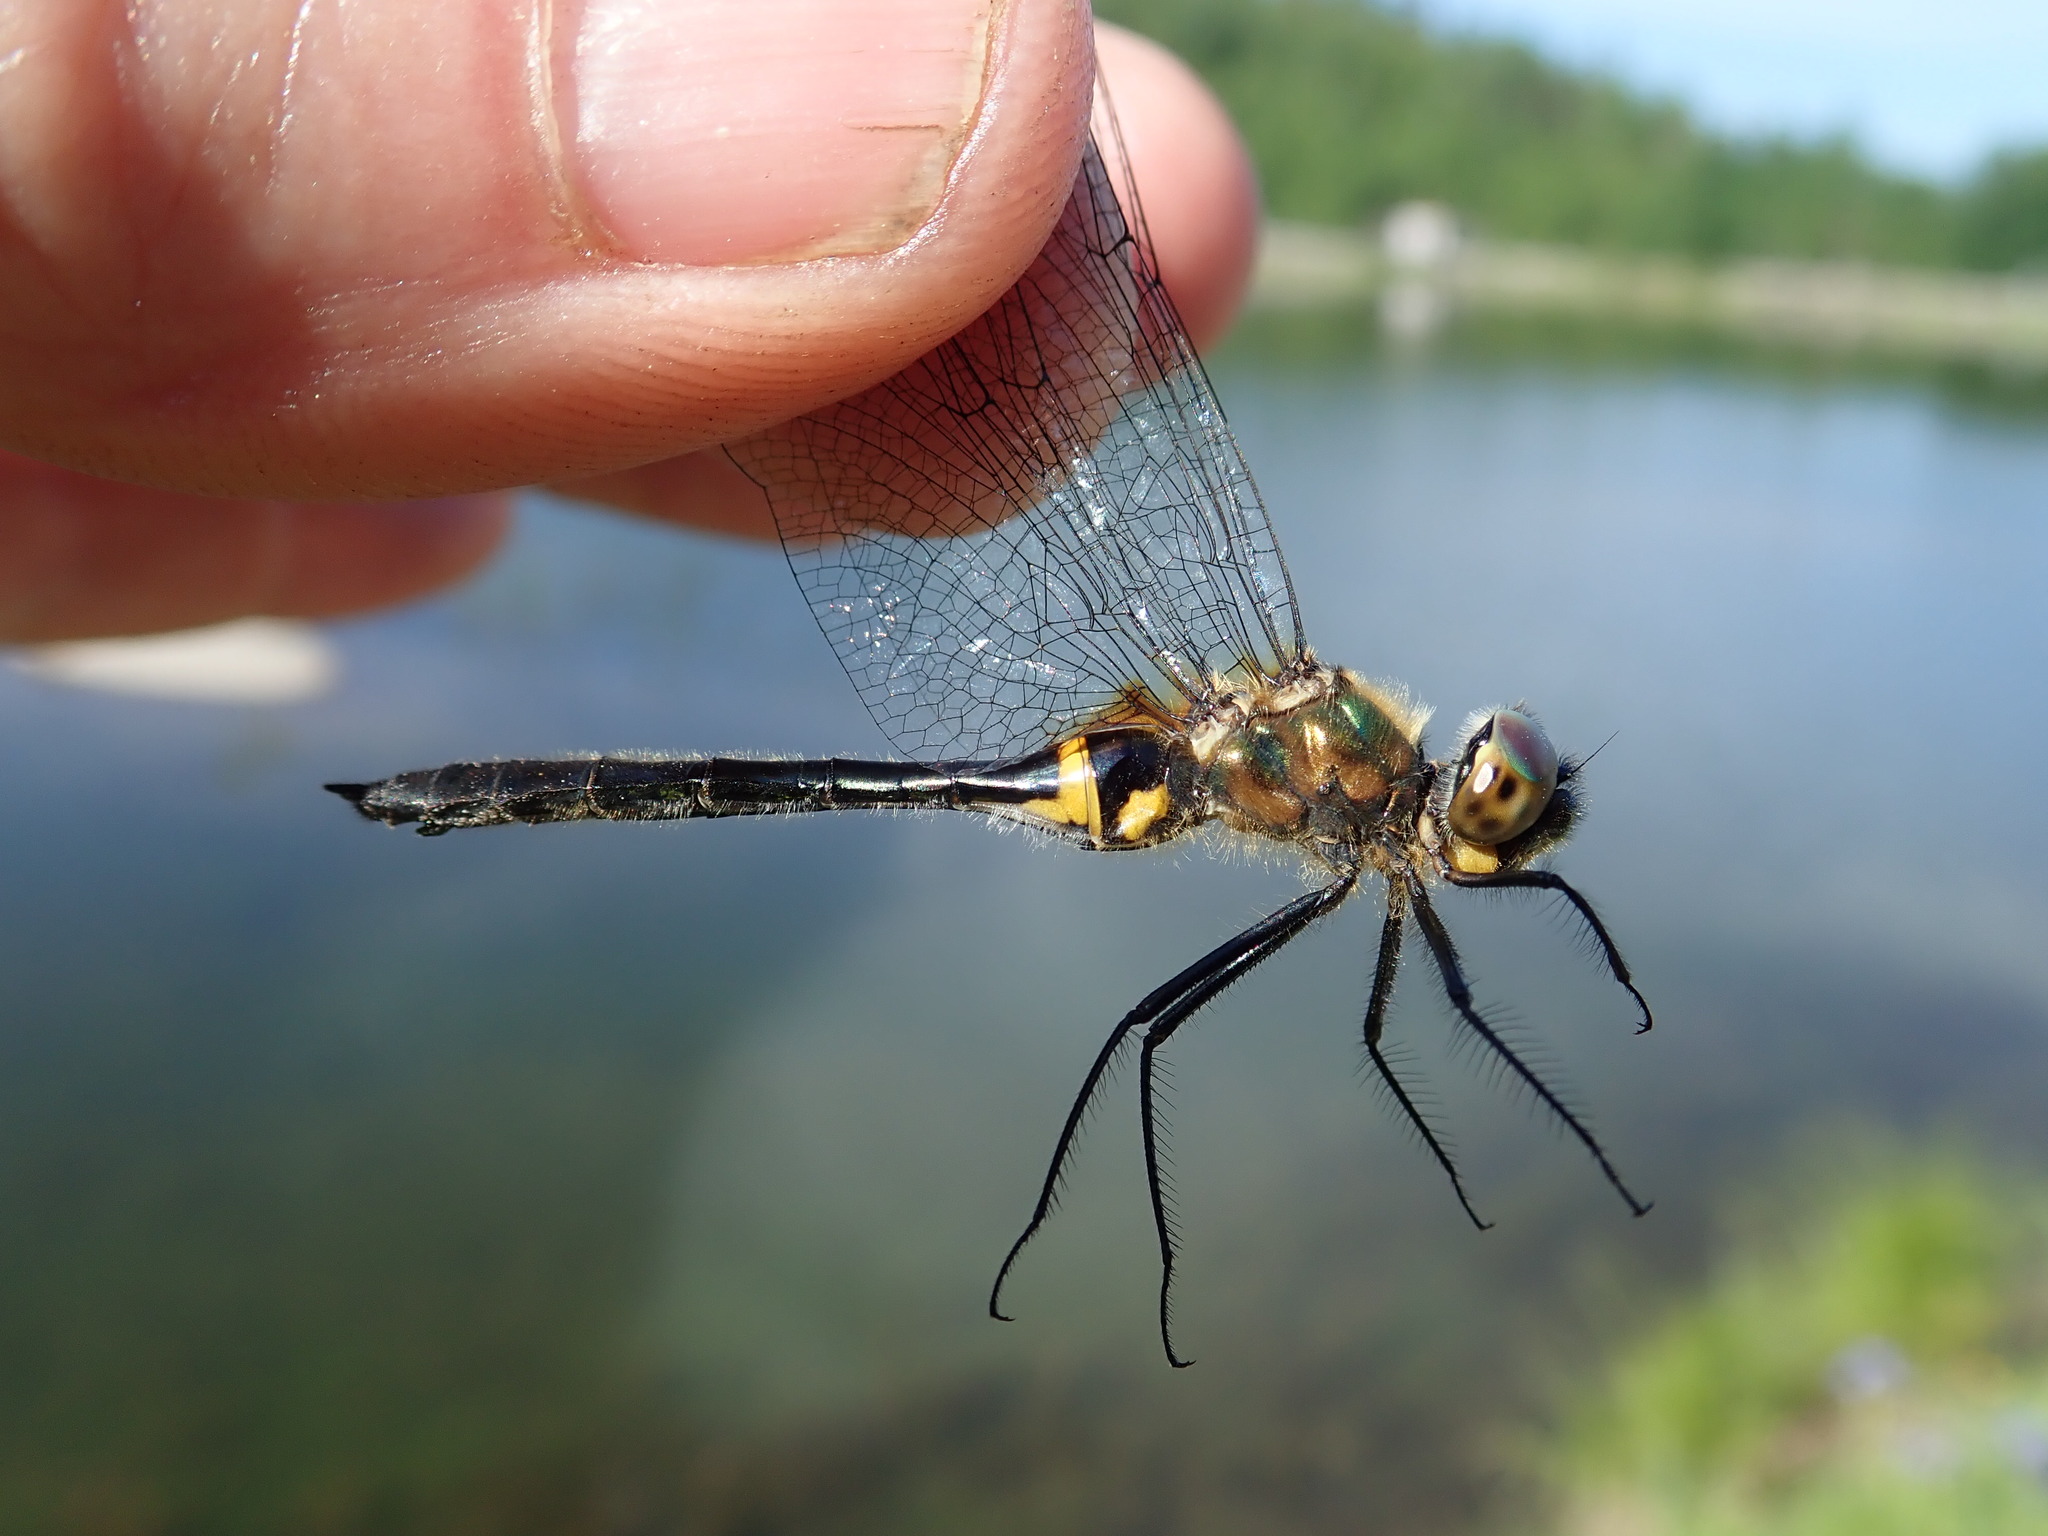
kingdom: Animalia
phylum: Arthropoda
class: Insecta
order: Odonata
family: Corduliidae
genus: Dorocordulia
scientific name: Dorocordulia libera
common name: Racket-tailed emerald
